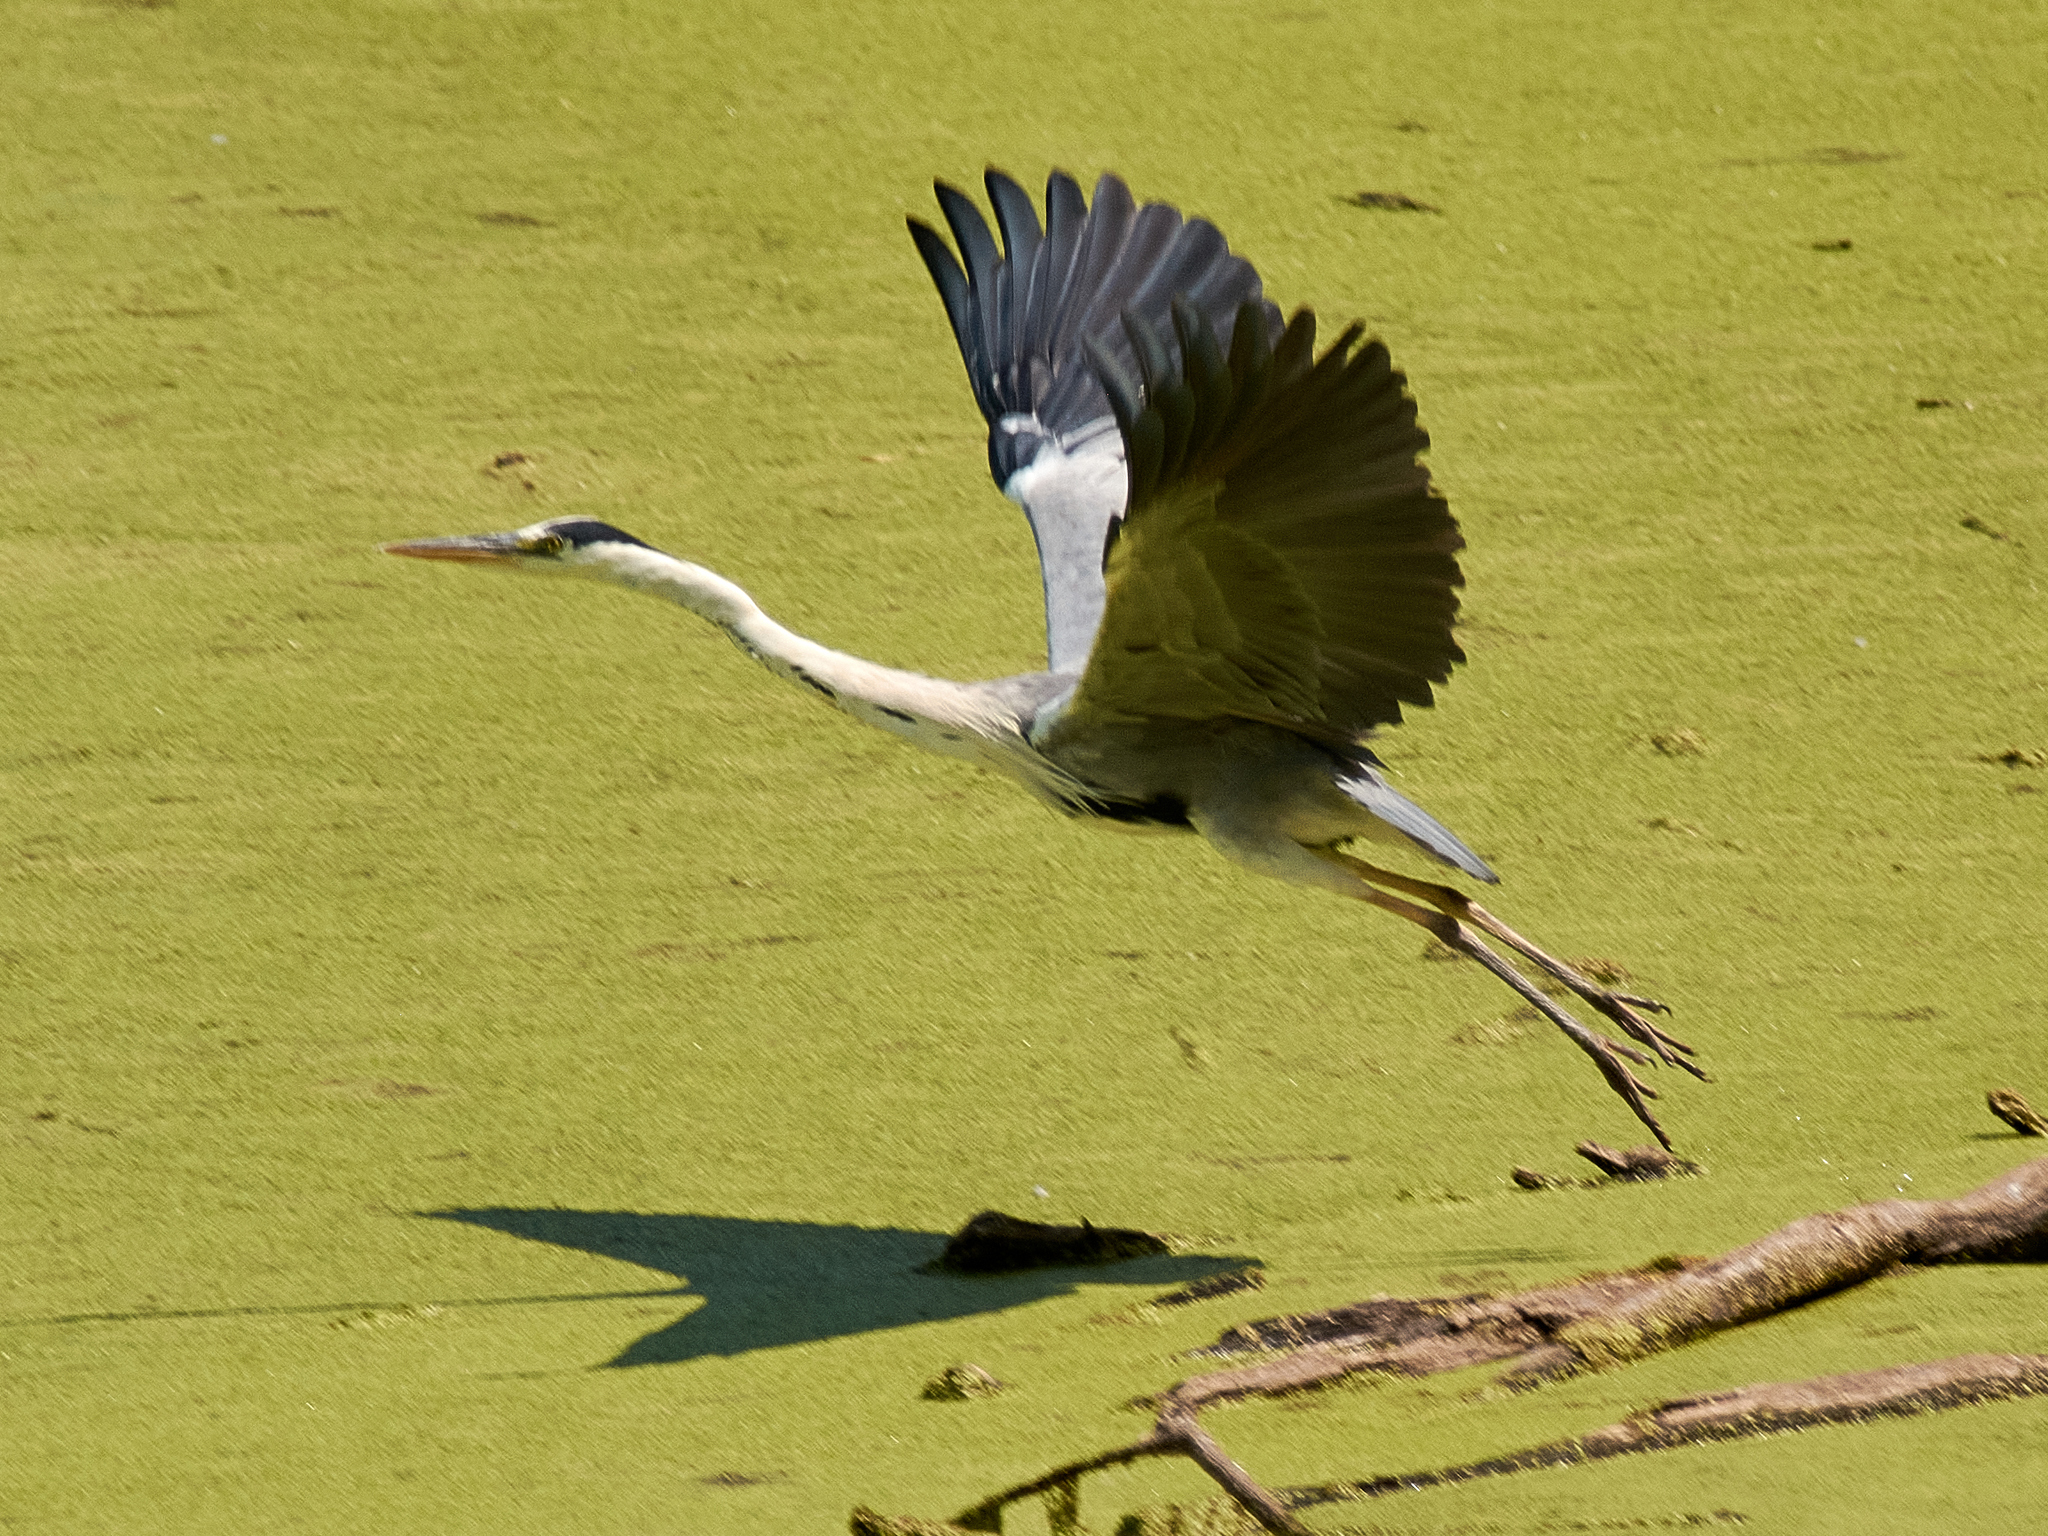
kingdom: Animalia
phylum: Chordata
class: Aves
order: Pelecaniformes
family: Ardeidae
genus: Ardea
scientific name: Ardea cinerea
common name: Grey heron
